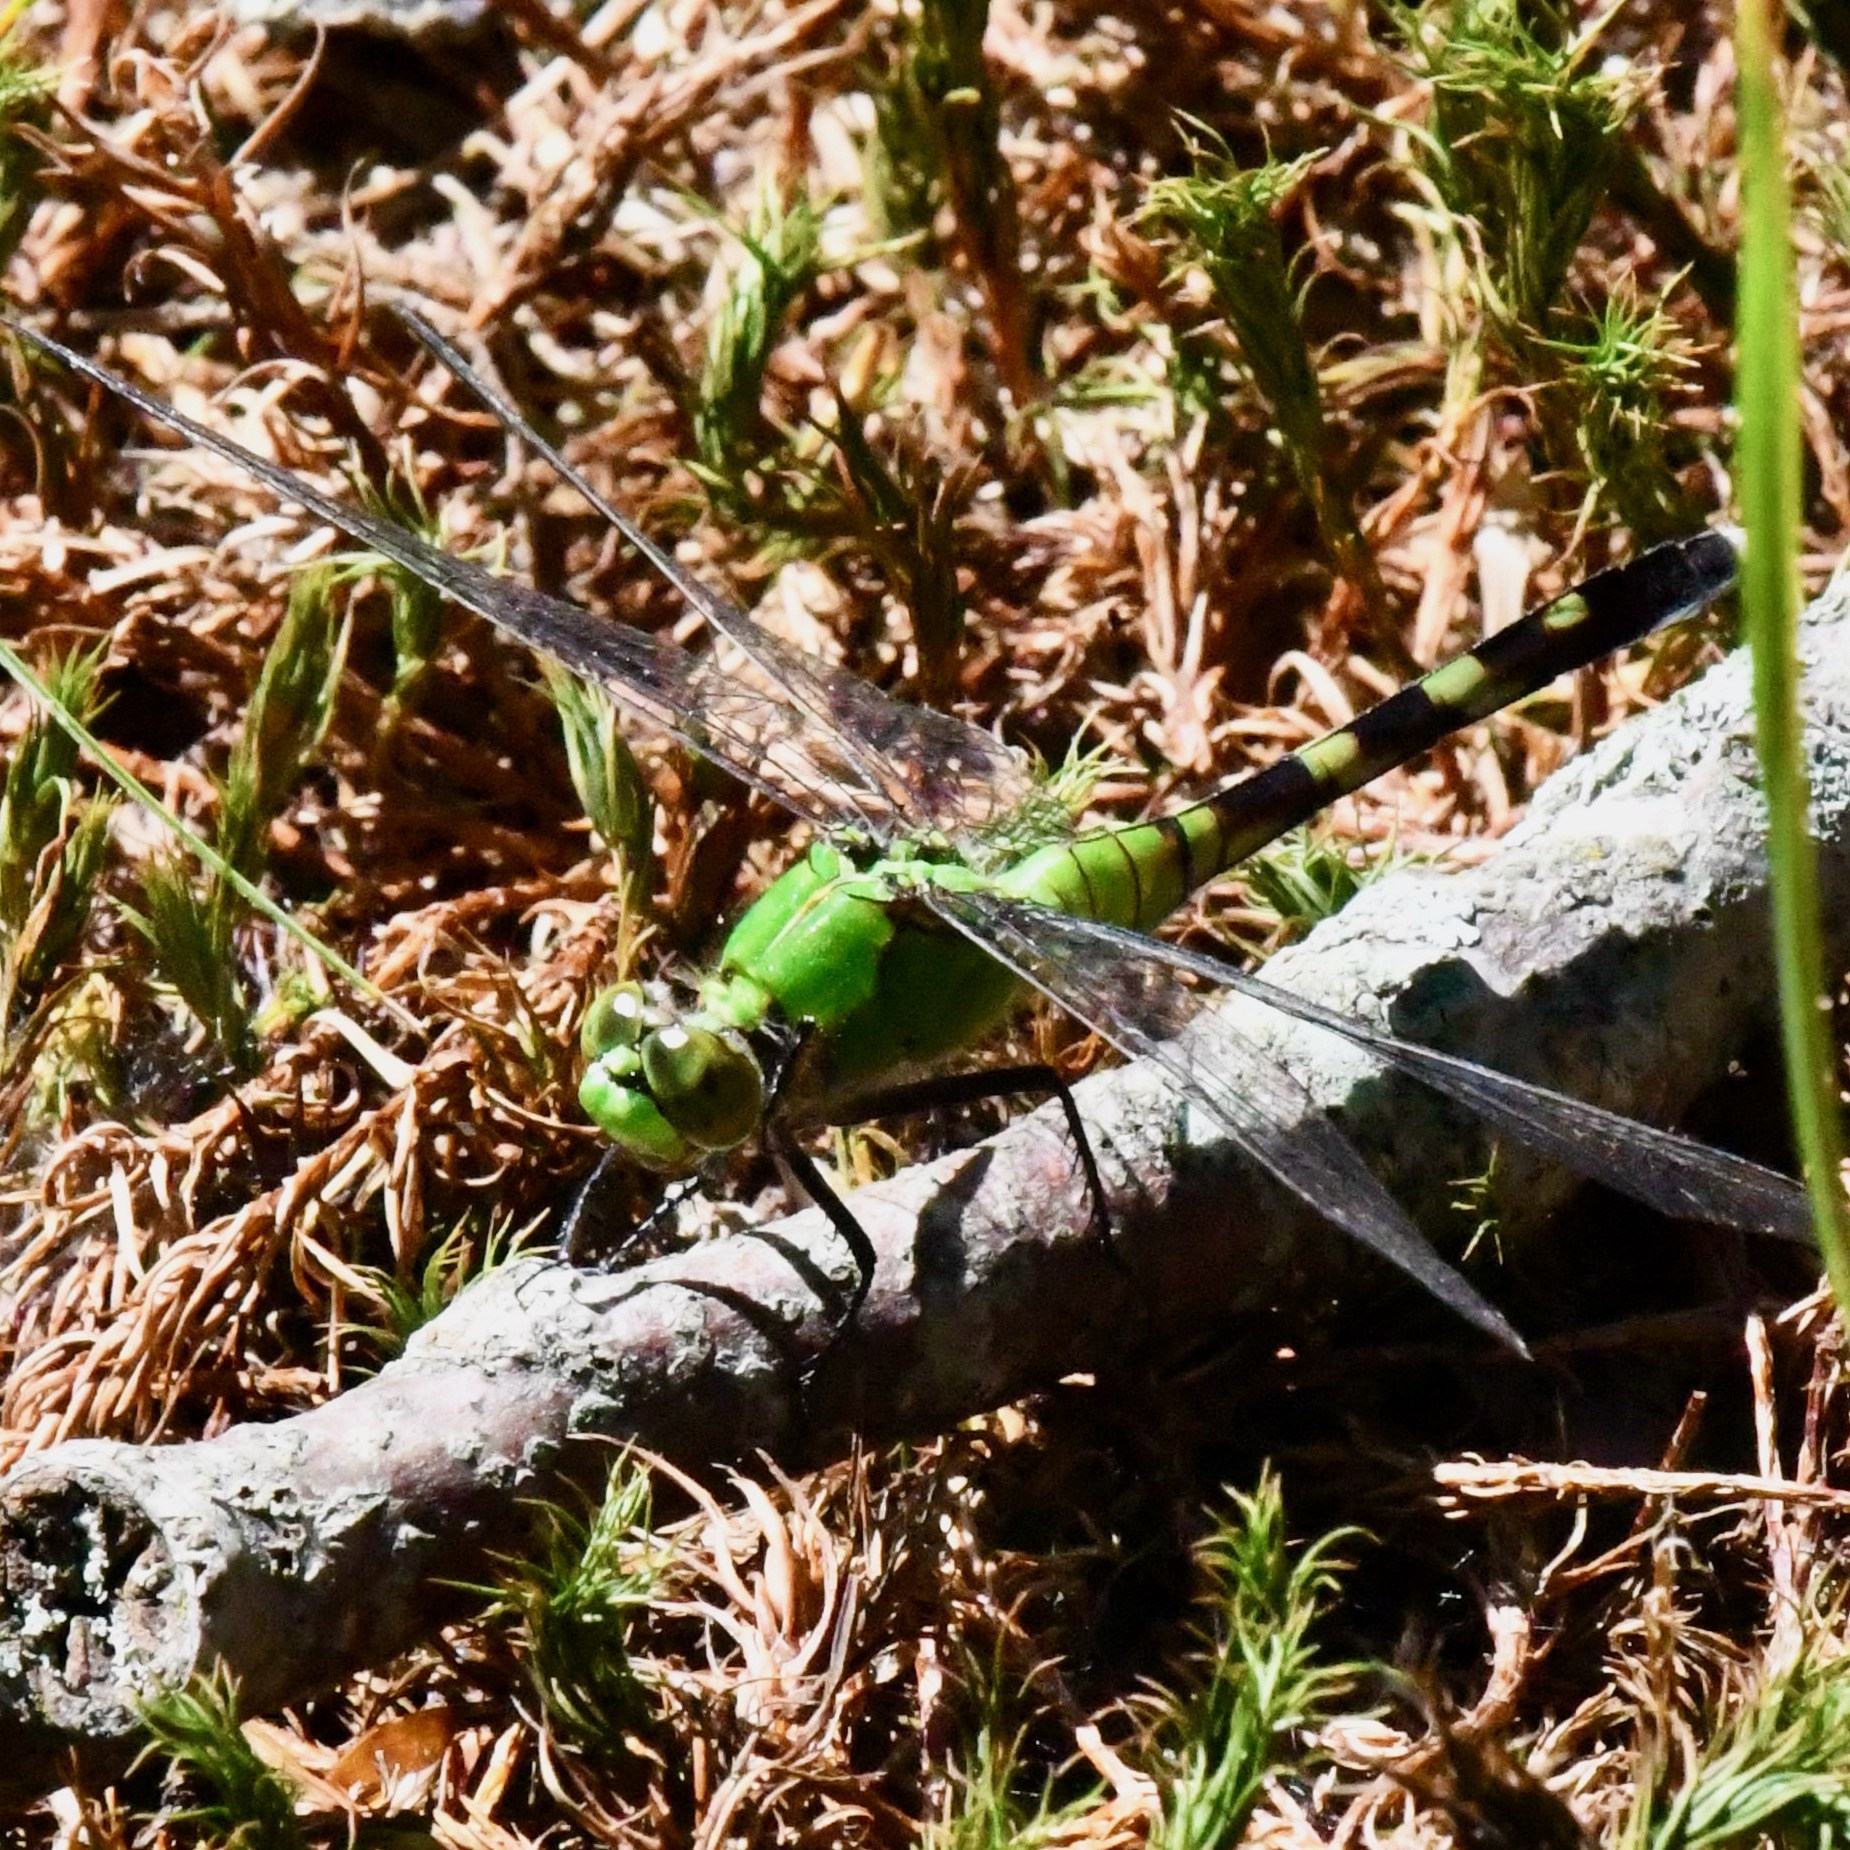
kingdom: Animalia
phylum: Arthropoda
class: Insecta
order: Odonata
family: Libellulidae
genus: Erythemis
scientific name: Erythemis simplicicollis
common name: Eastern pondhawk
